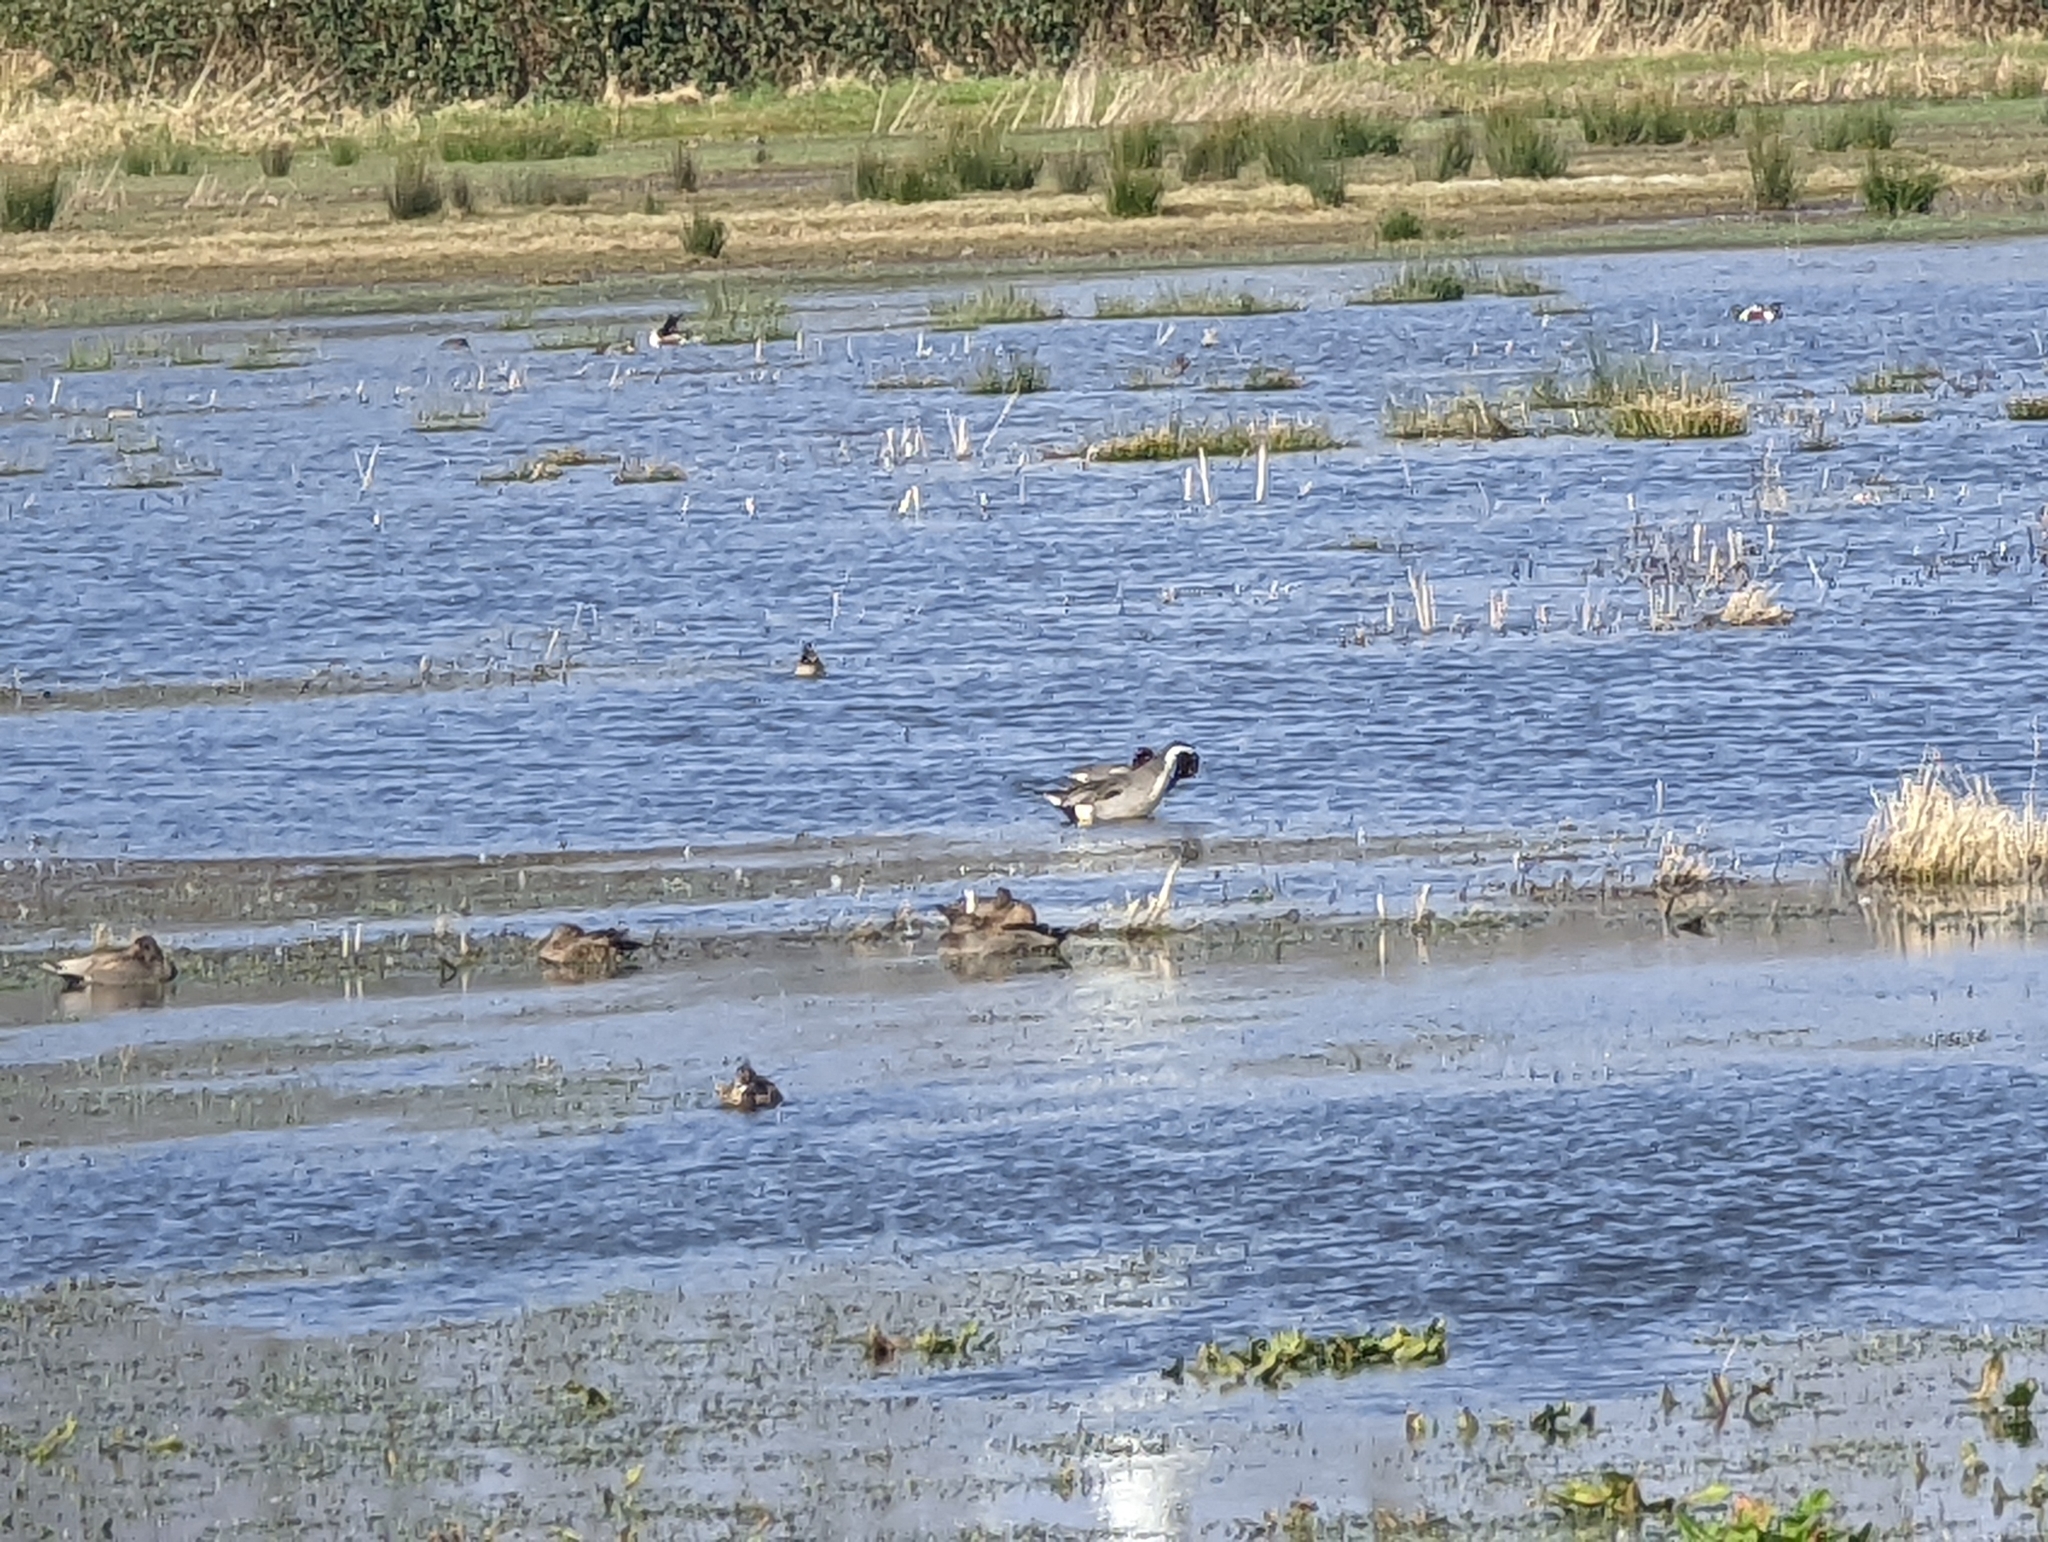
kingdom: Animalia
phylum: Chordata
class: Aves
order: Anseriformes
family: Anatidae
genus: Anas
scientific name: Anas acuta
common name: Northern pintail
